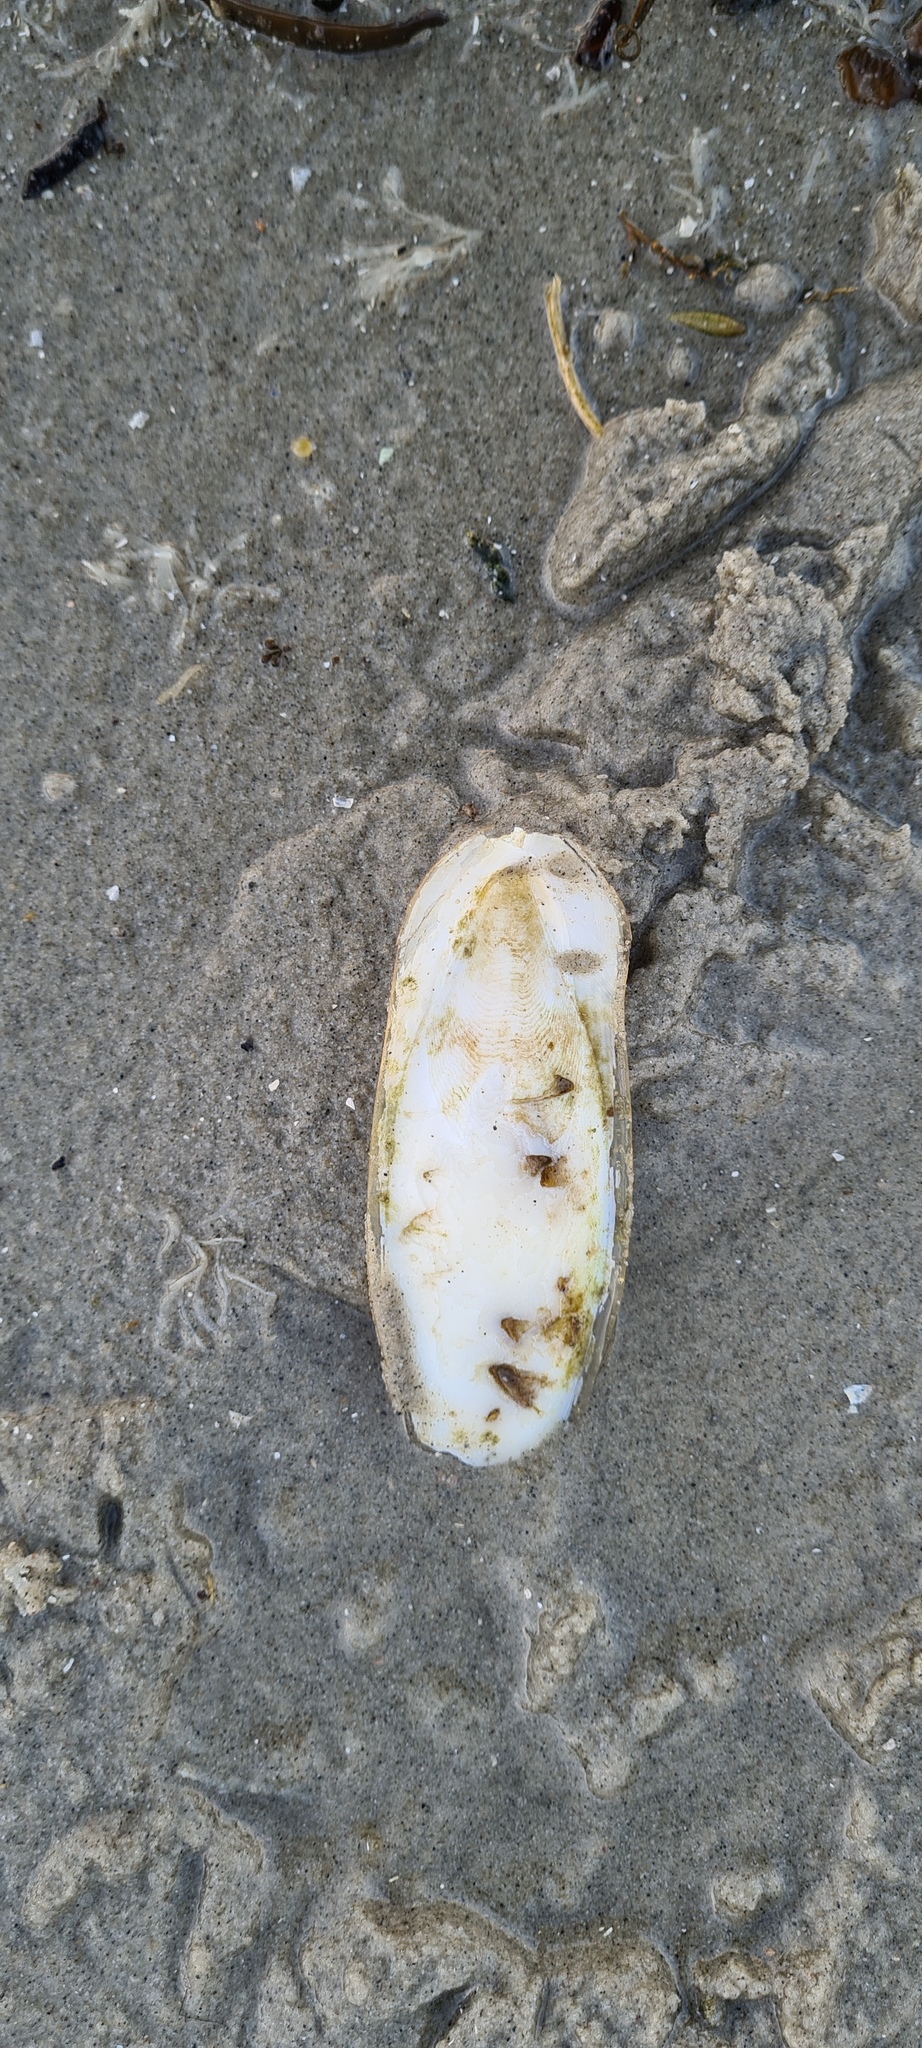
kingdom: Animalia
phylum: Mollusca
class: Cephalopoda
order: Sepiida
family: Sepiidae
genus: Sepia
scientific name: Sepia officinalis
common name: Common cuttlefish
